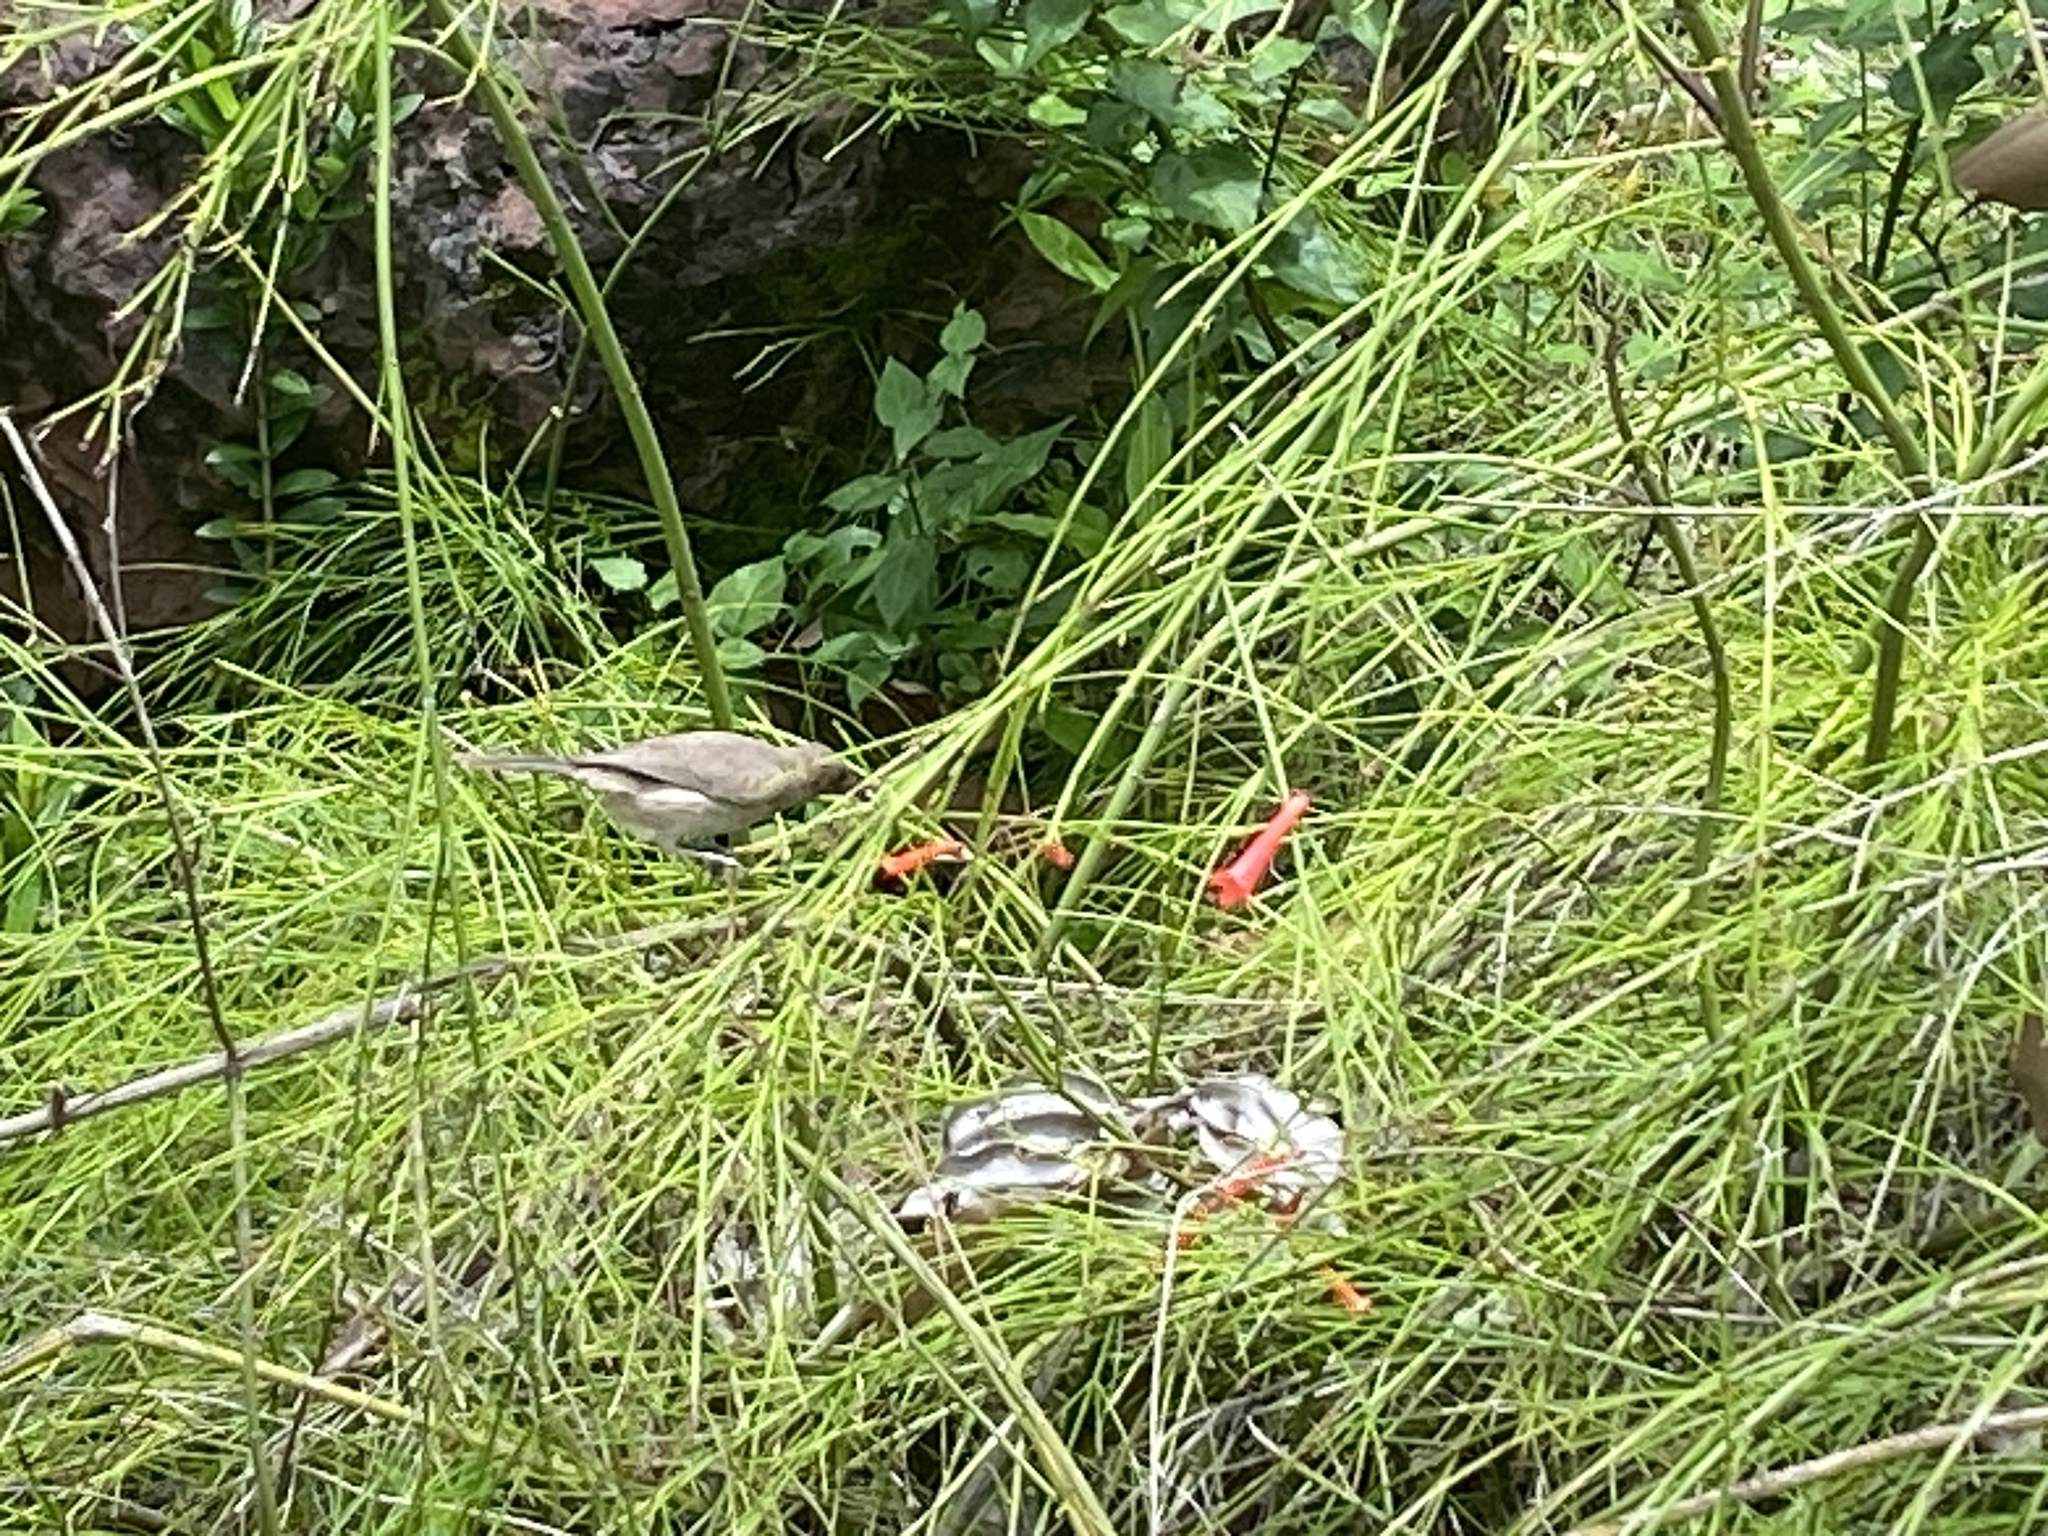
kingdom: Animalia
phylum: Chordata
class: Aves
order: Passeriformes
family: Meliphagidae
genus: Myzomela
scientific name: Myzomela obscura
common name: Dusky myzomela
